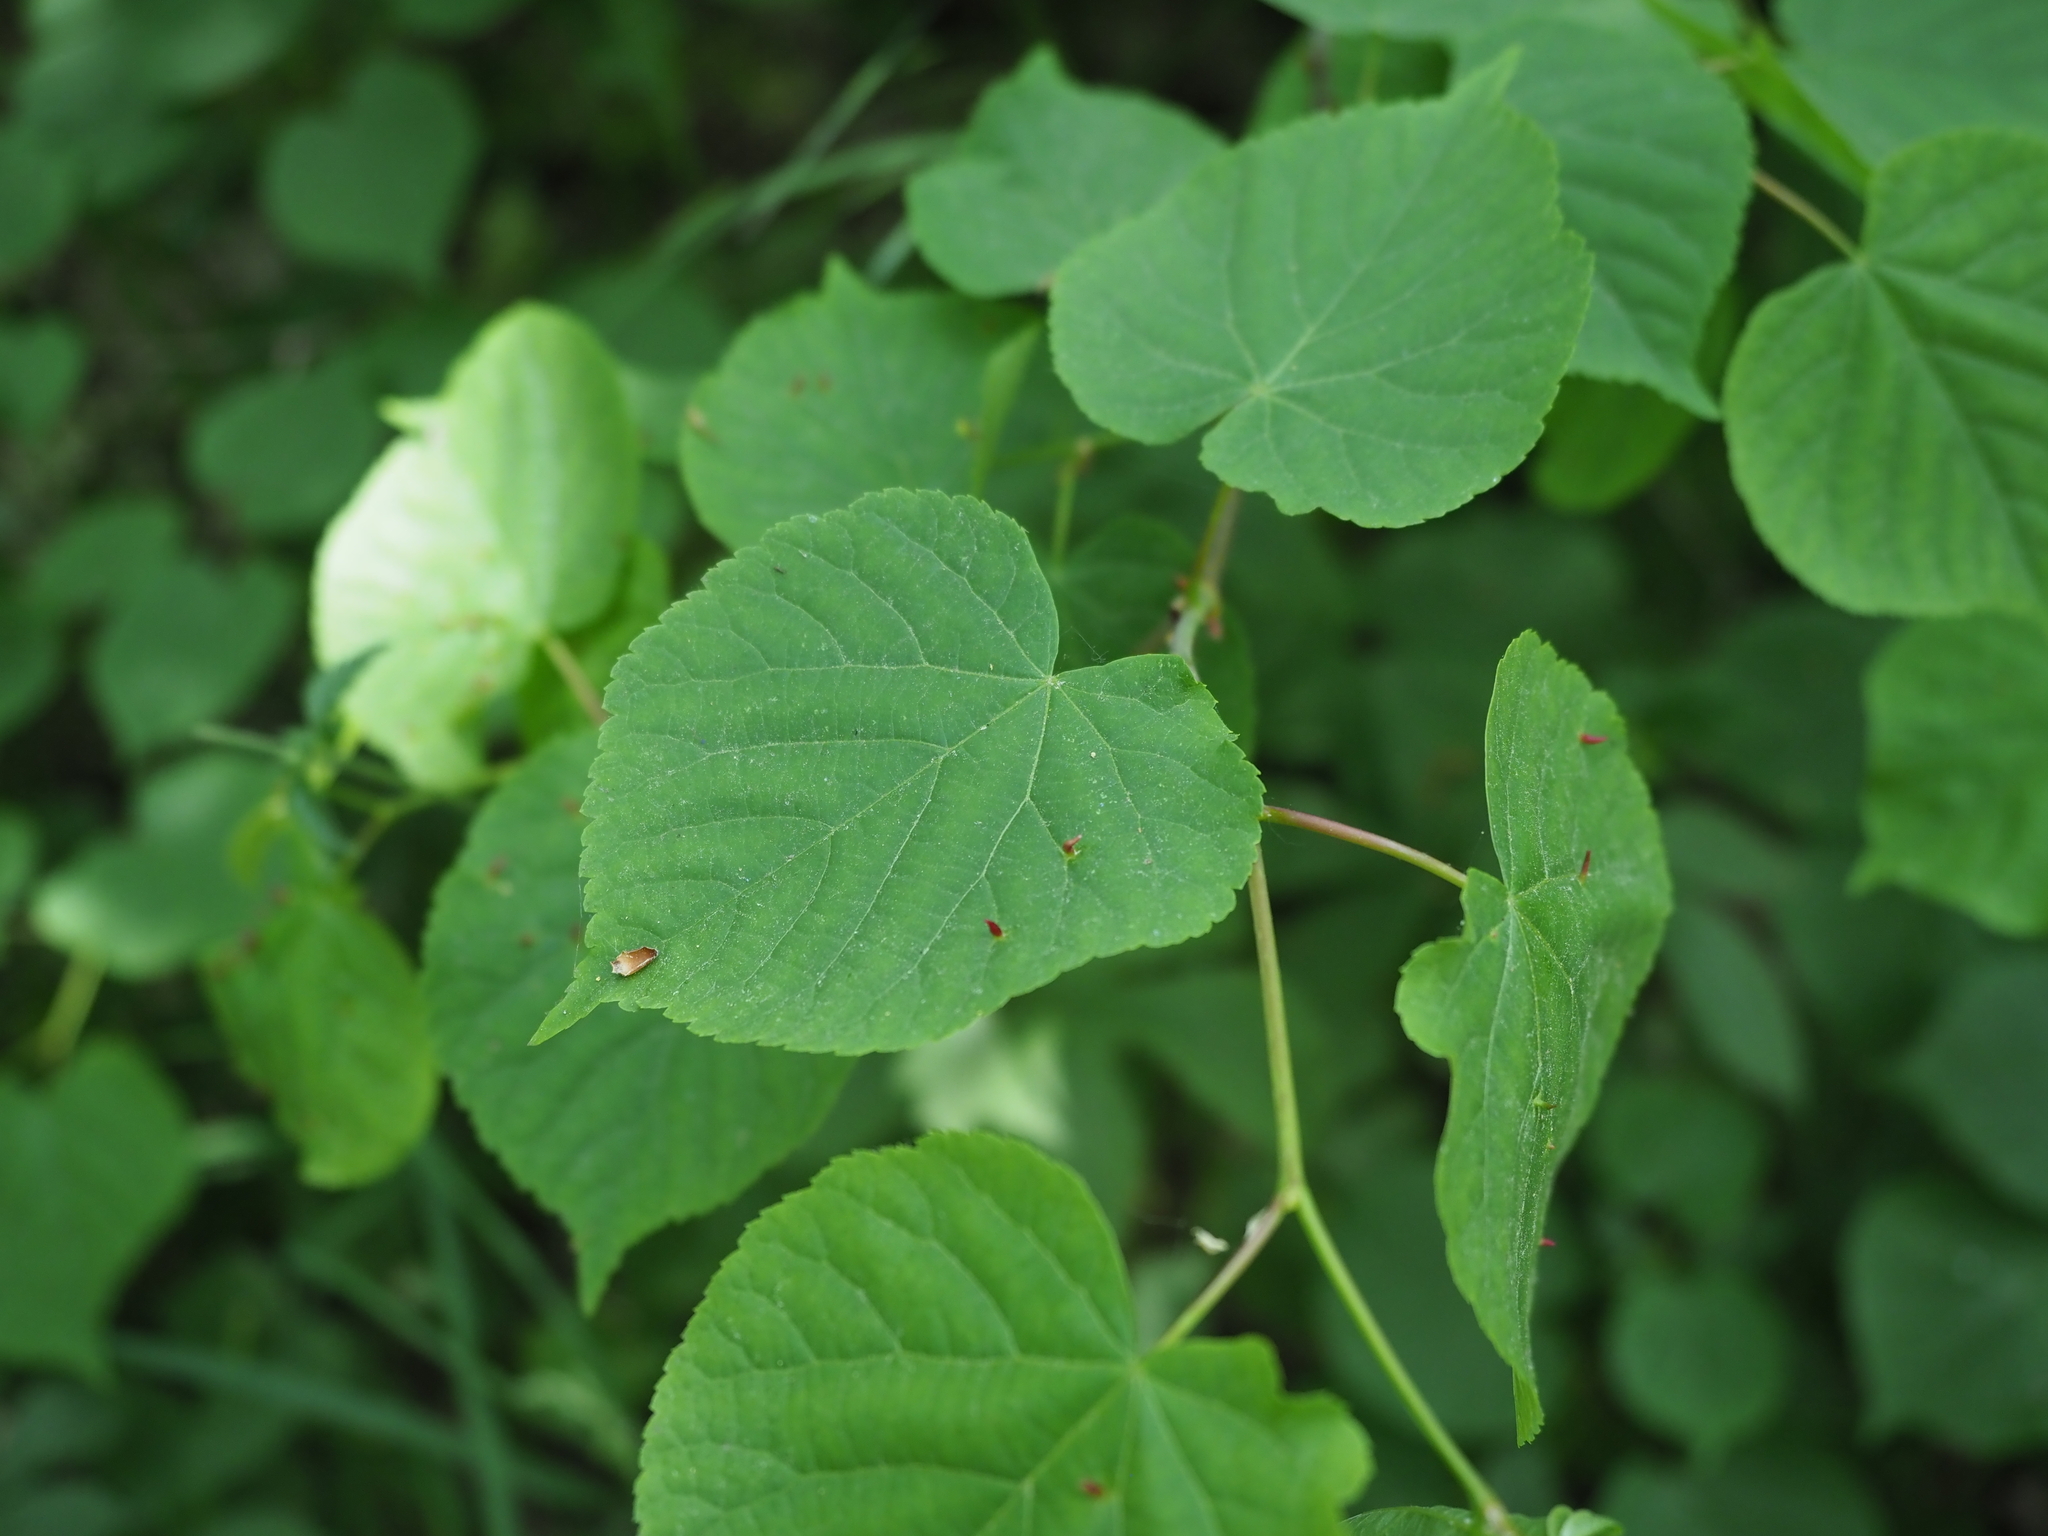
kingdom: Plantae
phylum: Tracheophyta
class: Magnoliopsida
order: Malvales
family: Malvaceae
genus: Tilia
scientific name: Tilia cordata
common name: Small-leaved lime
